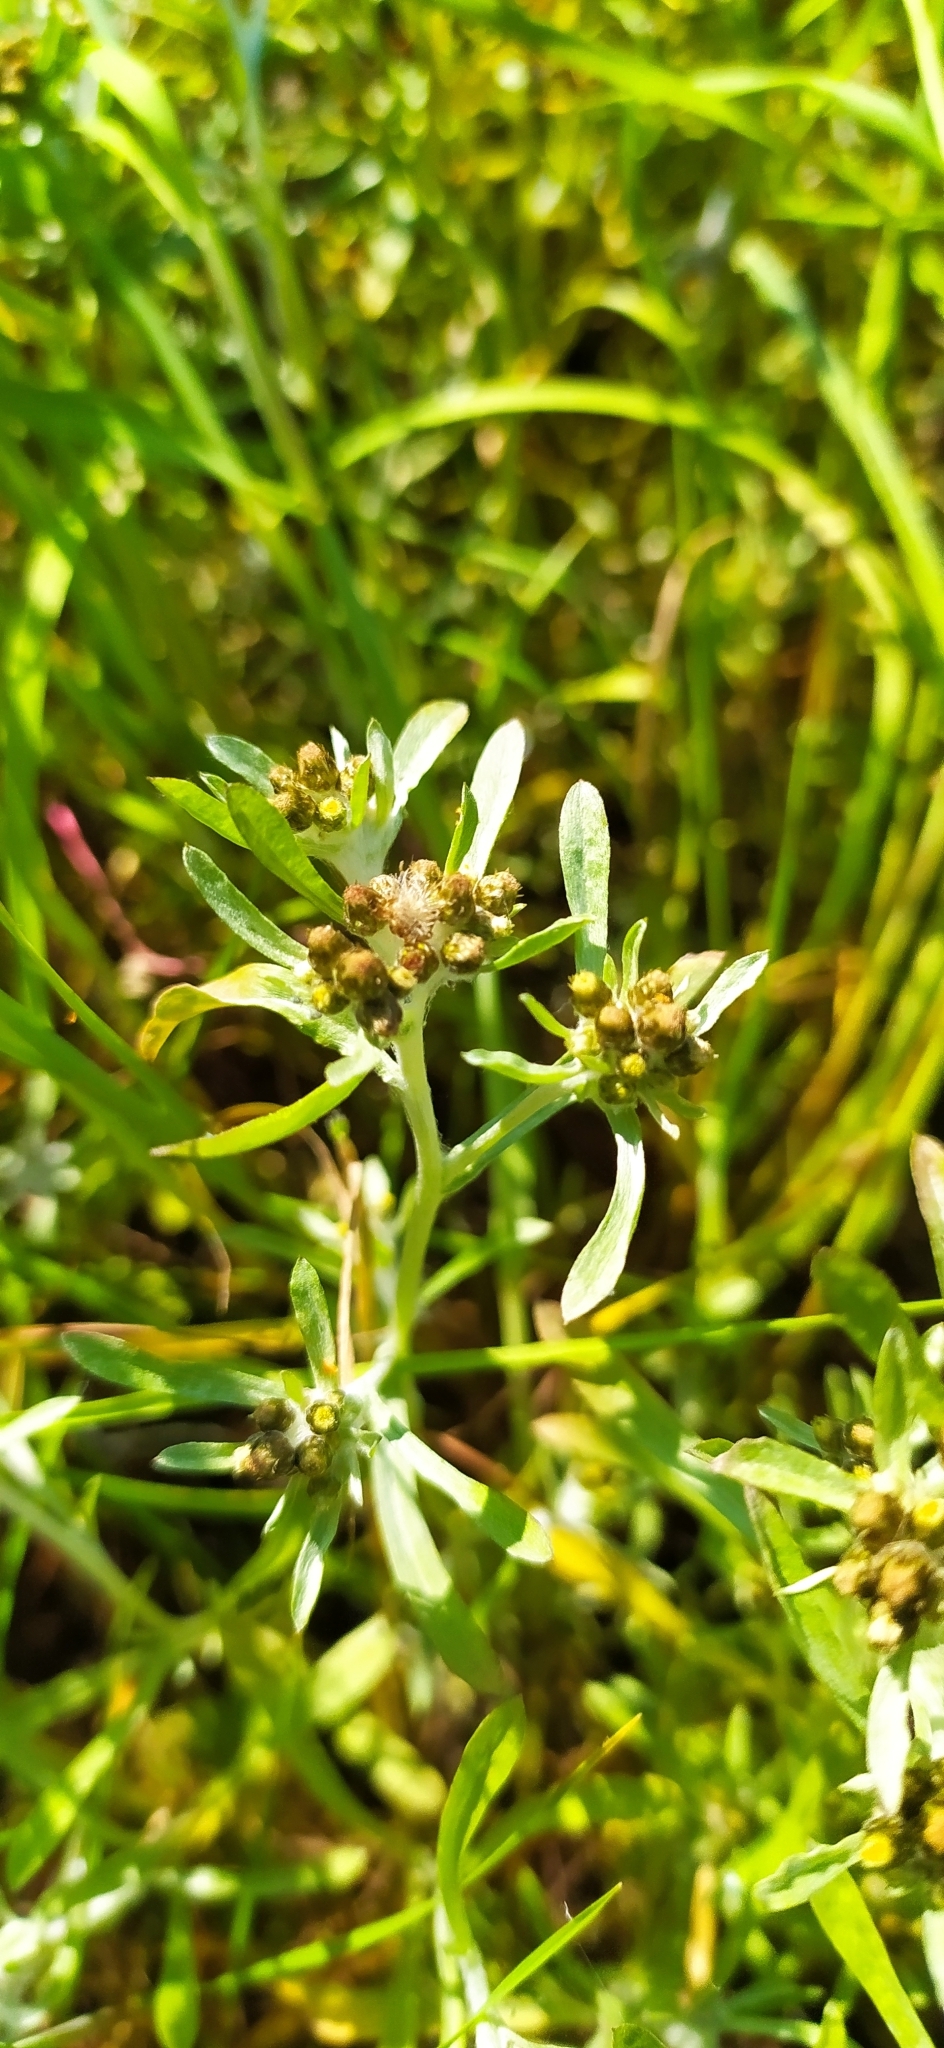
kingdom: Plantae
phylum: Tracheophyta
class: Magnoliopsida
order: Asterales
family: Asteraceae
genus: Gnaphalium
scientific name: Gnaphalium uliginosum
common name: Marsh cudweed
